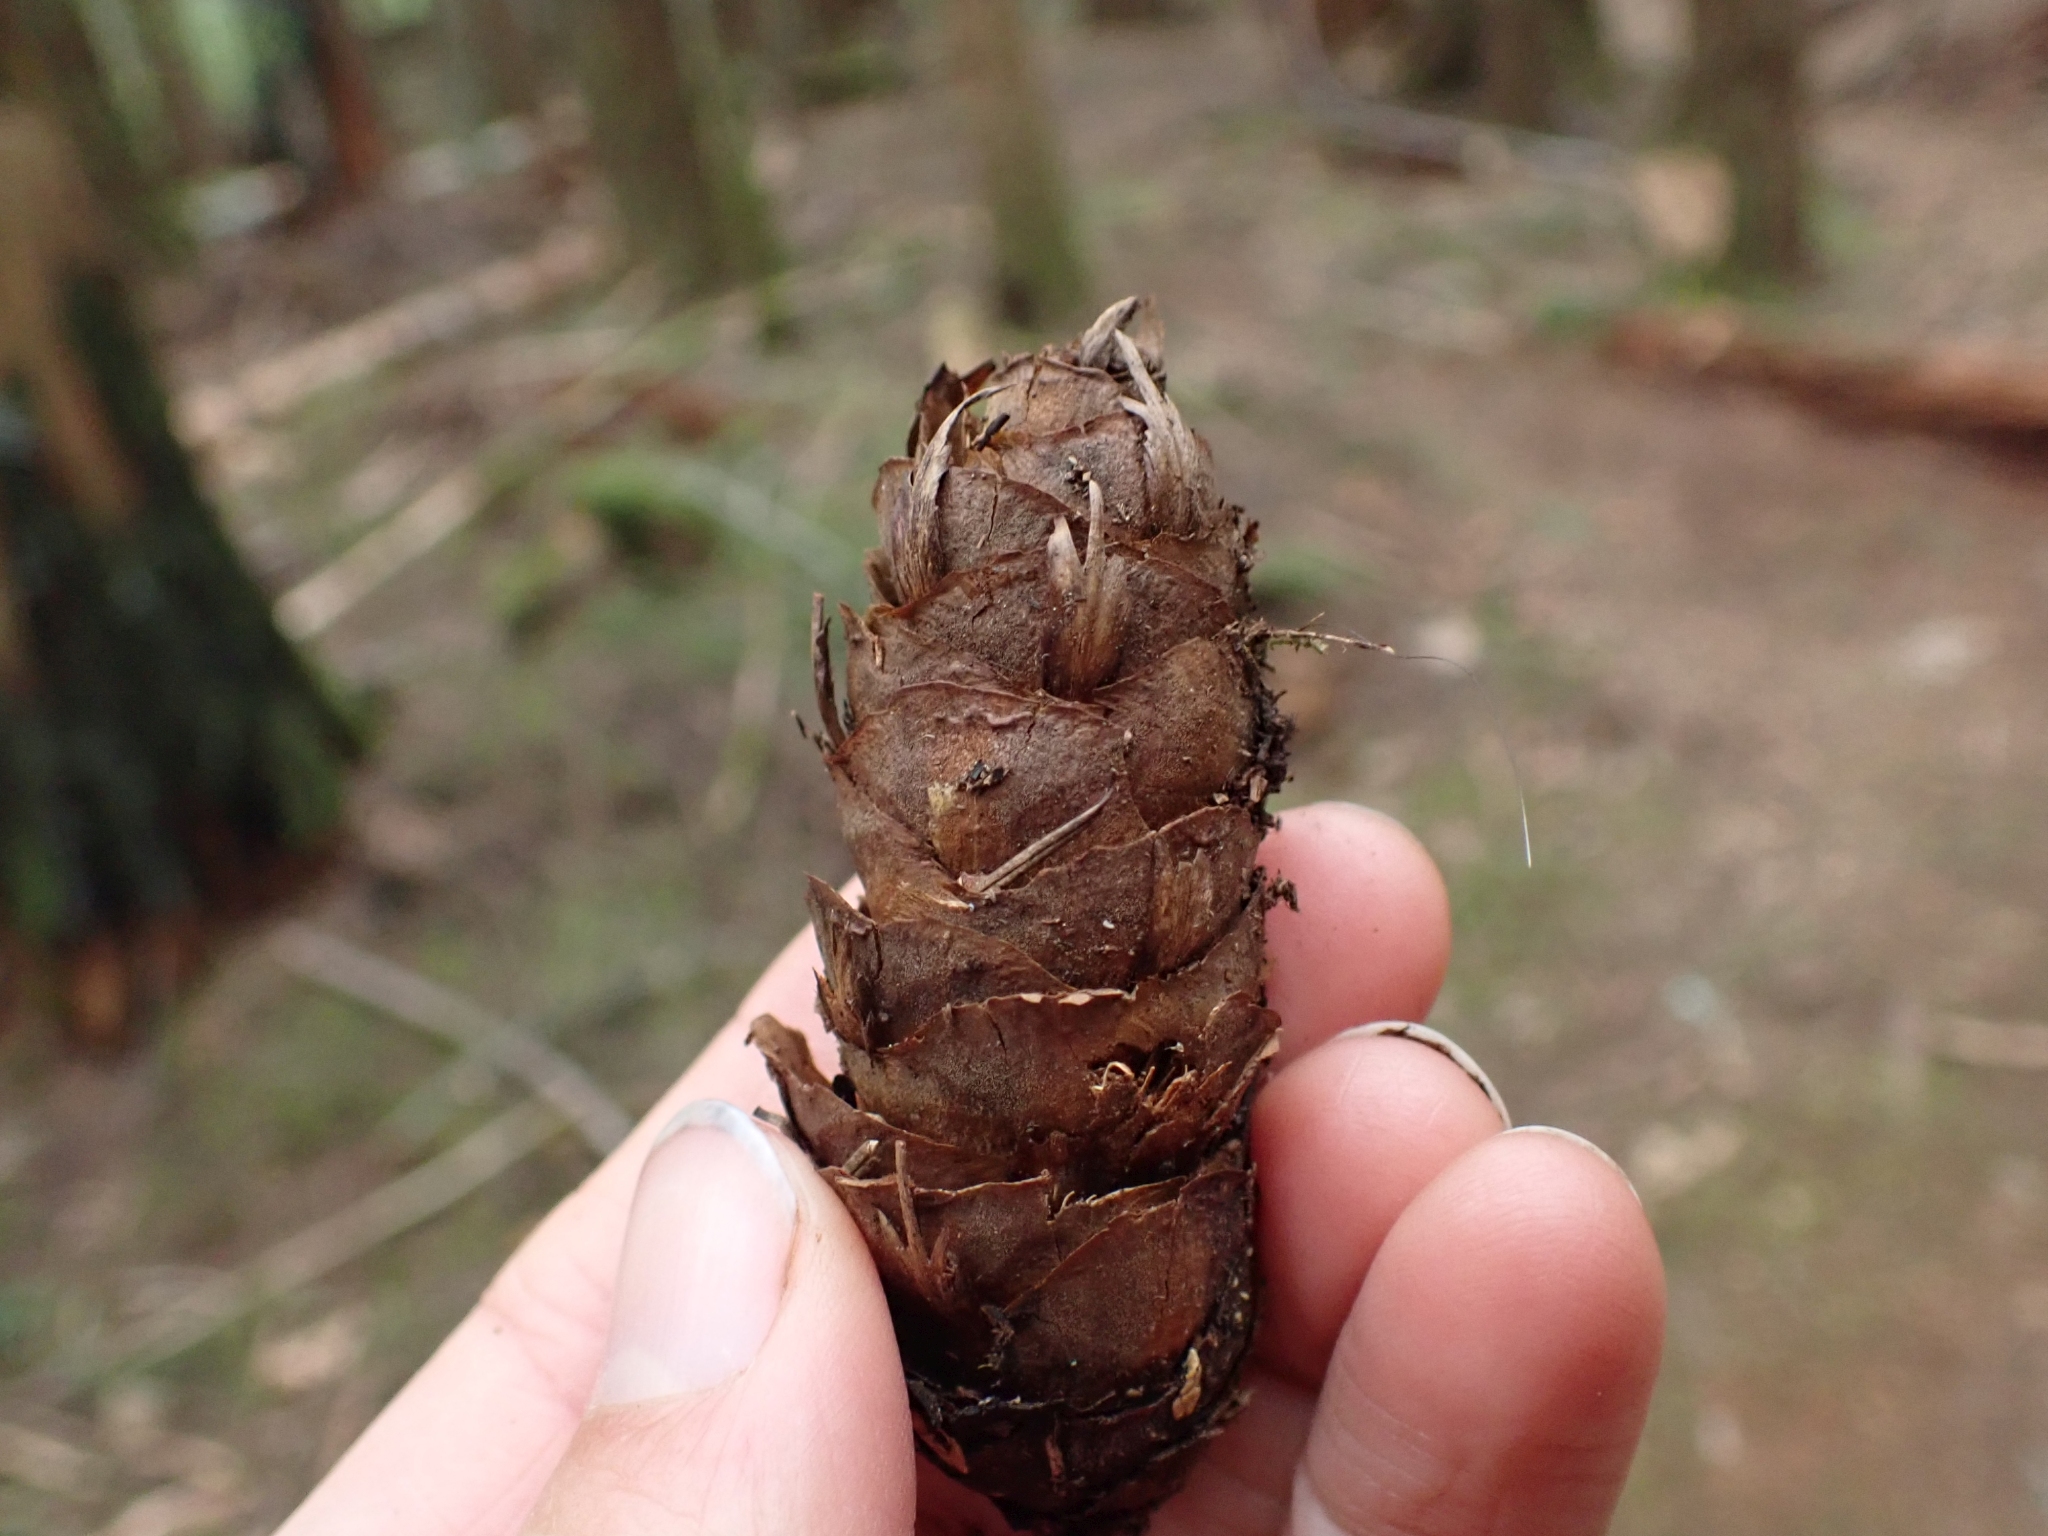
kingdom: Plantae
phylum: Tracheophyta
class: Pinopsida
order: Pinales
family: Pinaceae
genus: Pseudotsuga
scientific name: Pseudotsuga menziesii
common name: Douglas fir
